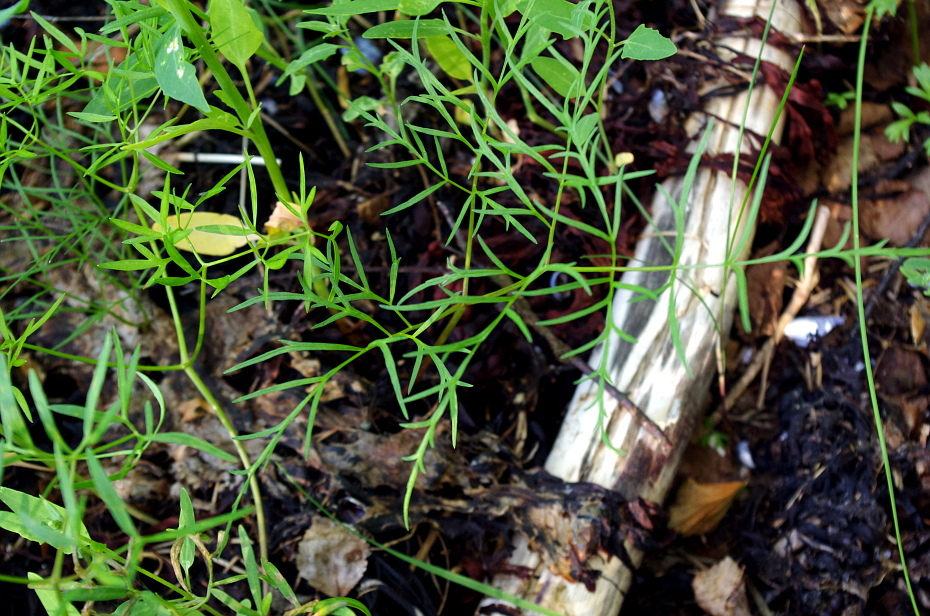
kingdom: Plantae
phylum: Tracheophyta
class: Magnoliopsida
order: Apiales
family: Apiaceae
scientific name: Apiaceae
